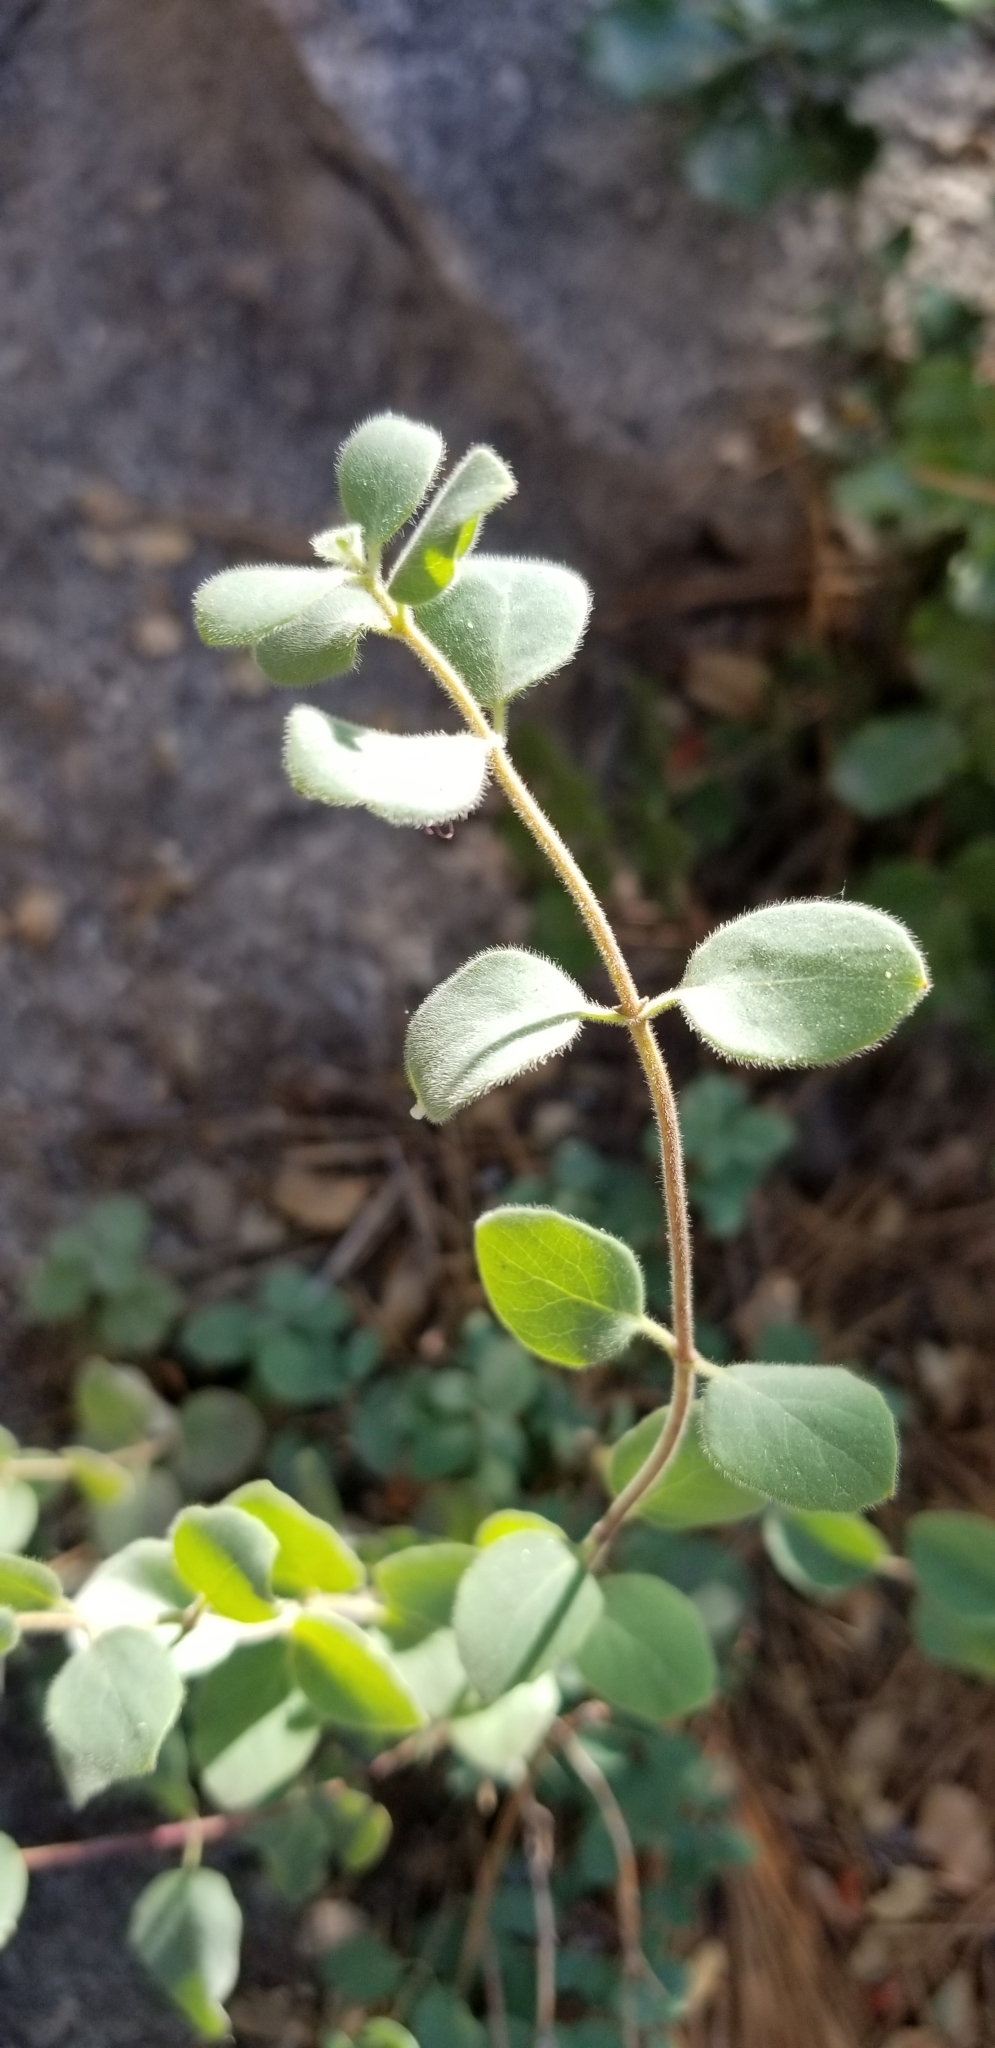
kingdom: Plantae
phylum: Tracheophyta
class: Magnoliopsida
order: Dipsacales
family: Caprifoliaceae
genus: Lonicera
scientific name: Lonicera subspicata
